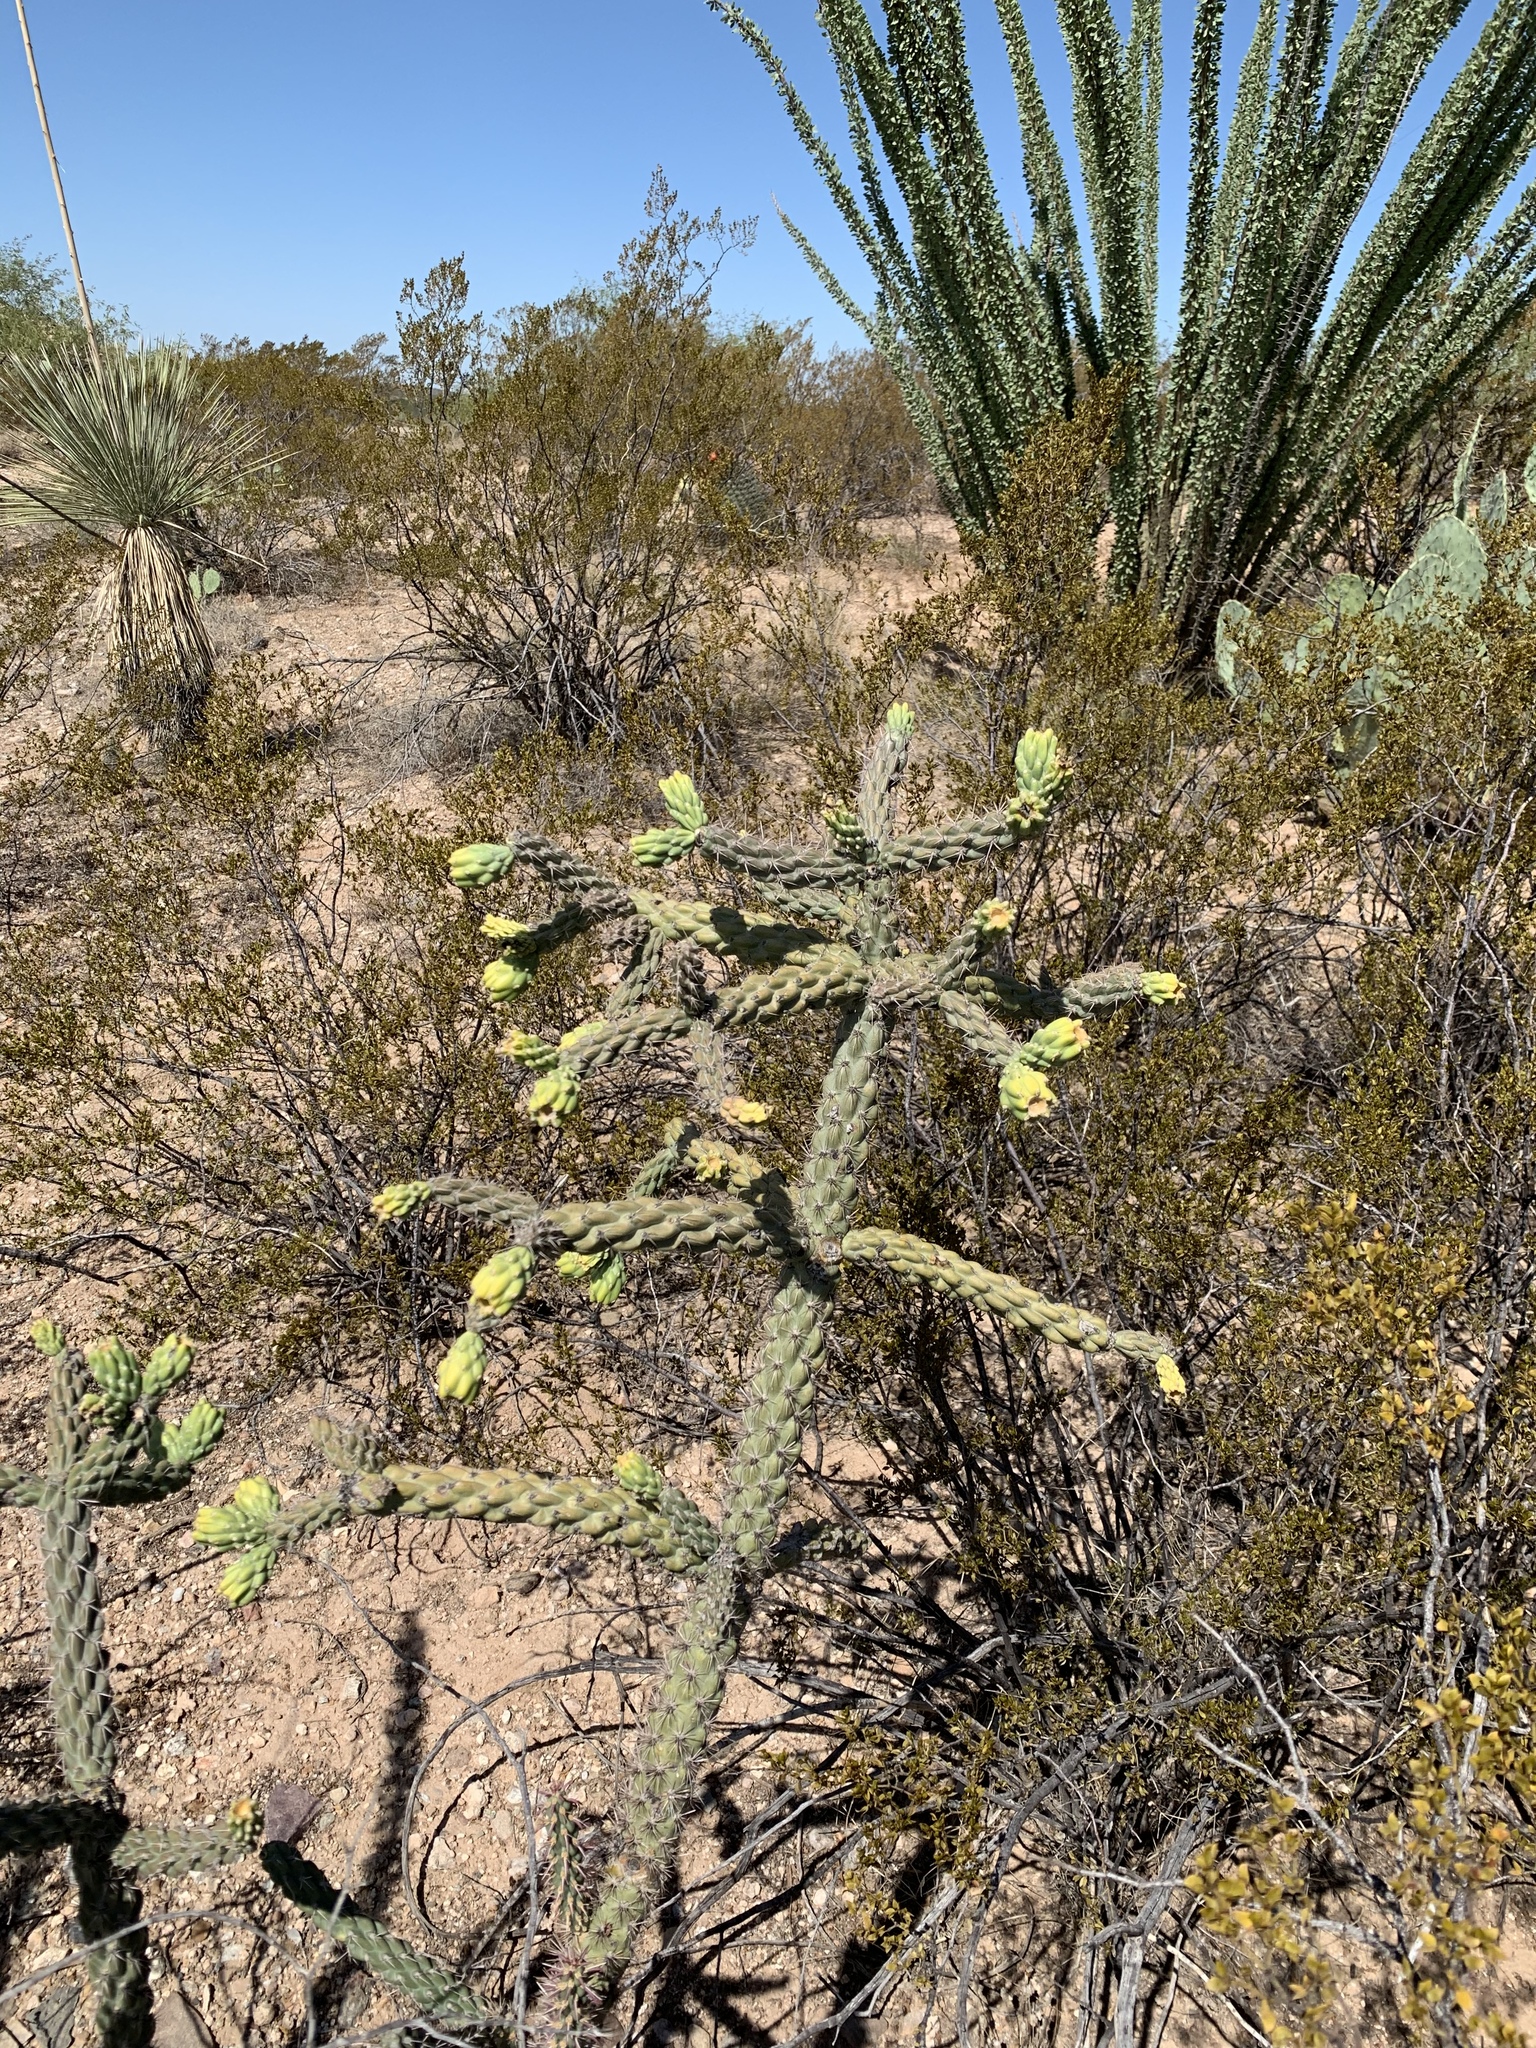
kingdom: Plantae
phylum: Tracheophyta
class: Magnoliopsida
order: Caryophyllales
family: Cactaceae
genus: Cylindropuntia
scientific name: Cylindropuntia imbricata
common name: Candelabrum cactus
